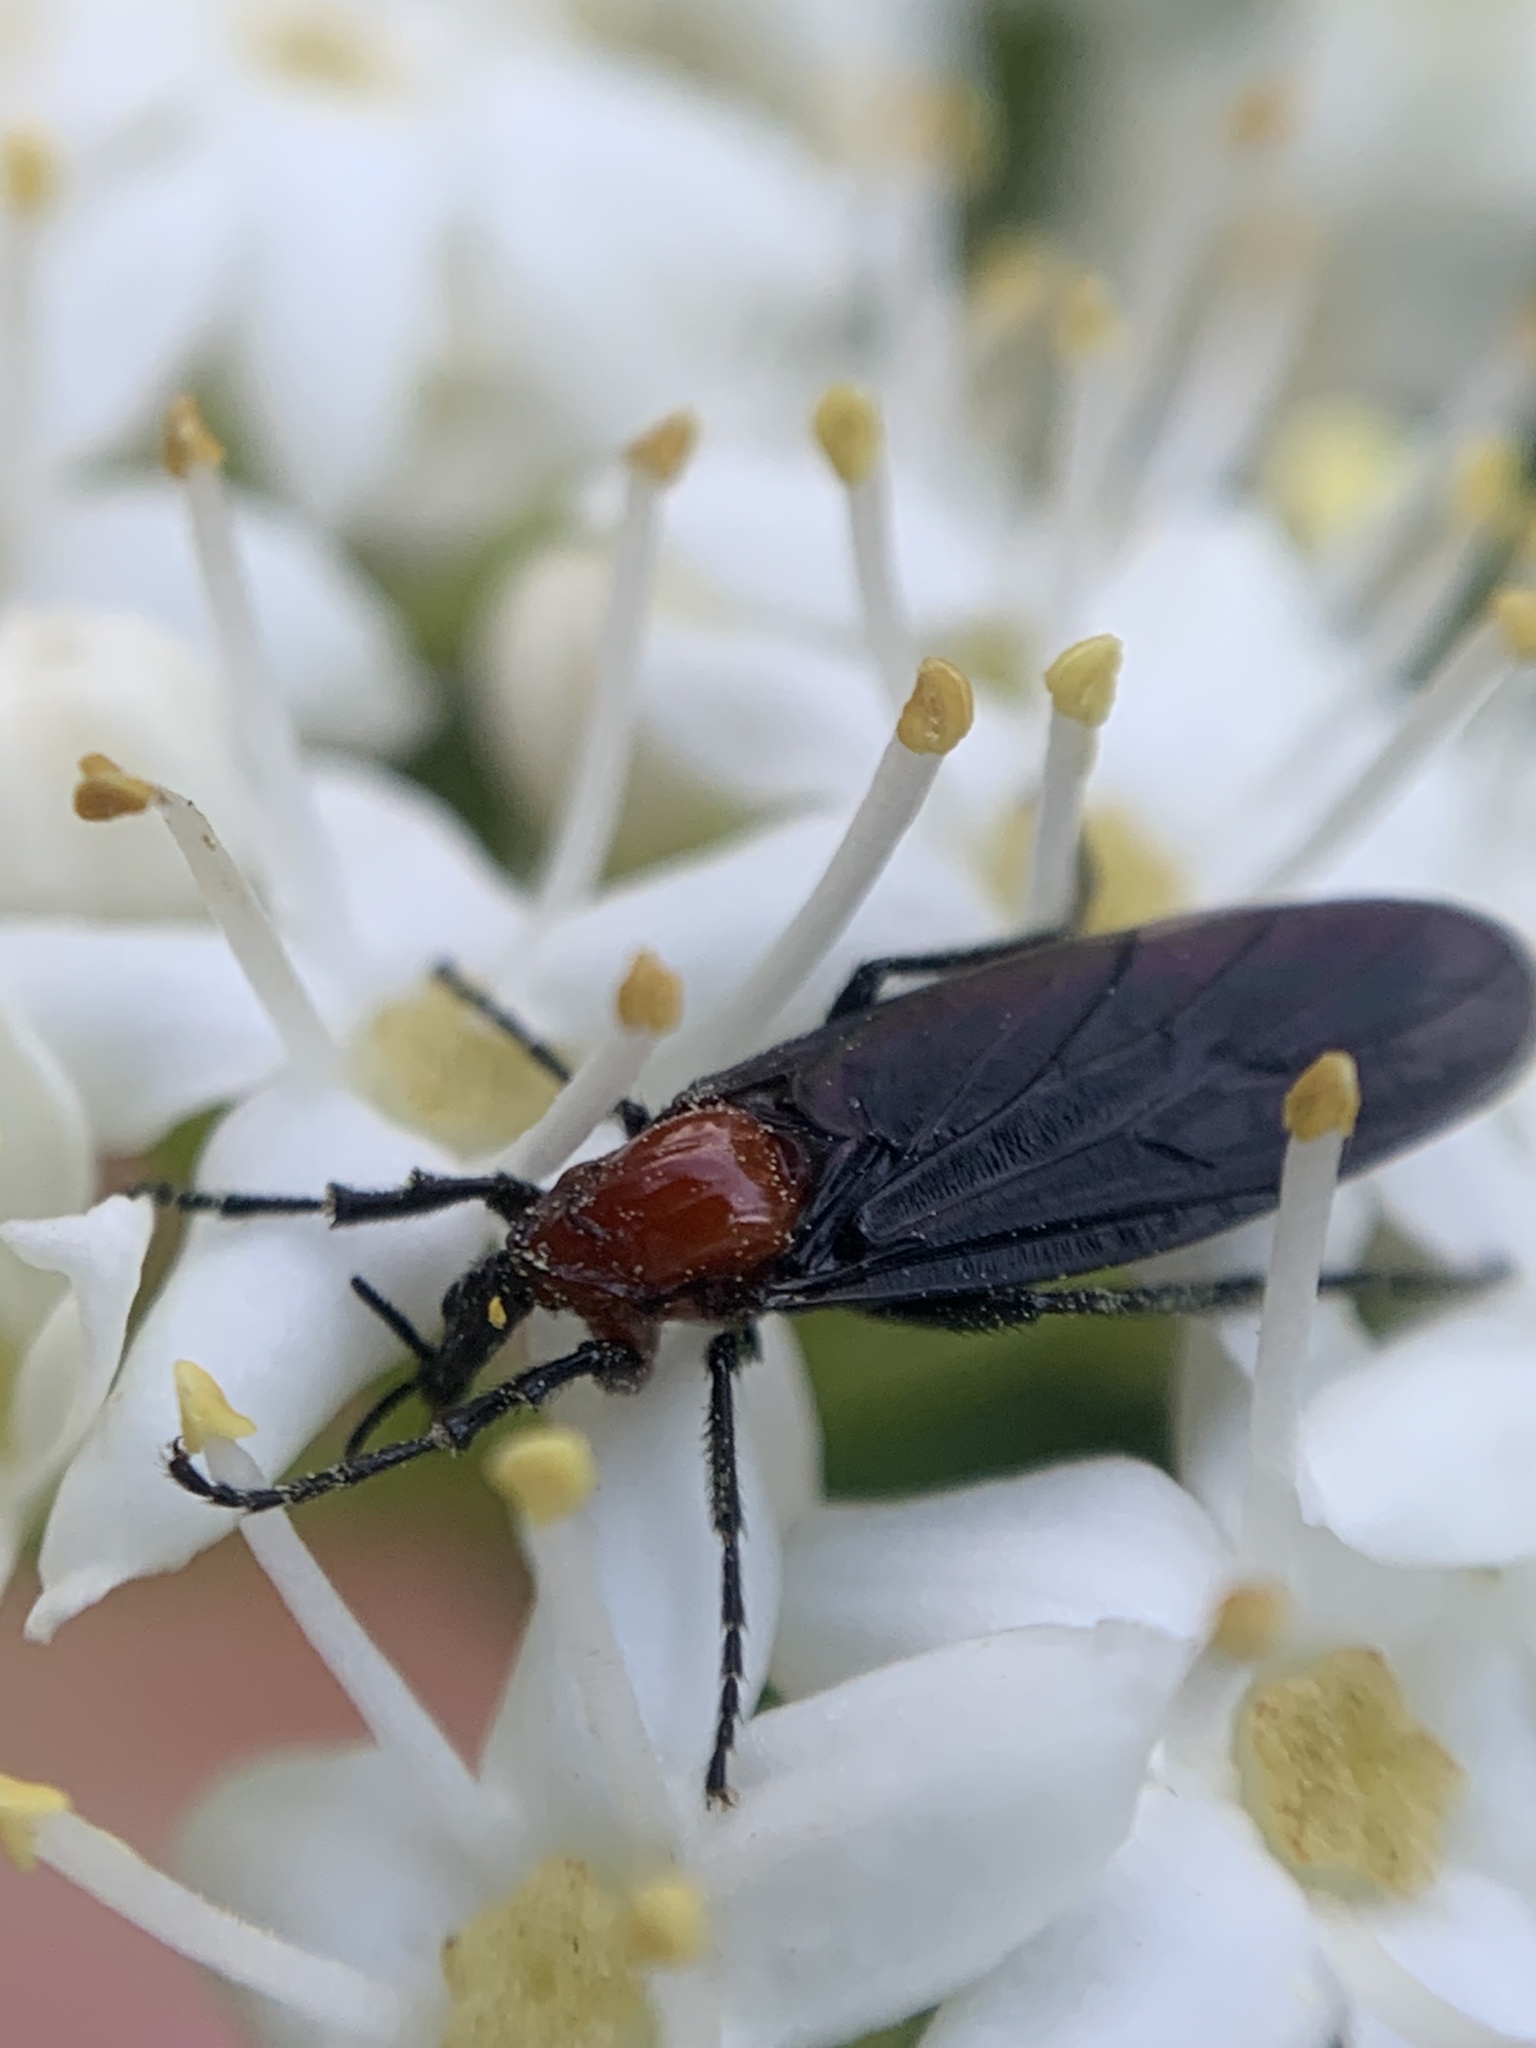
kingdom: Animalia
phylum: Arthropoda
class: Insecta
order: Diptera
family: Bibionidae
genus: Dilophus
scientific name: Dilophus pectoralis
